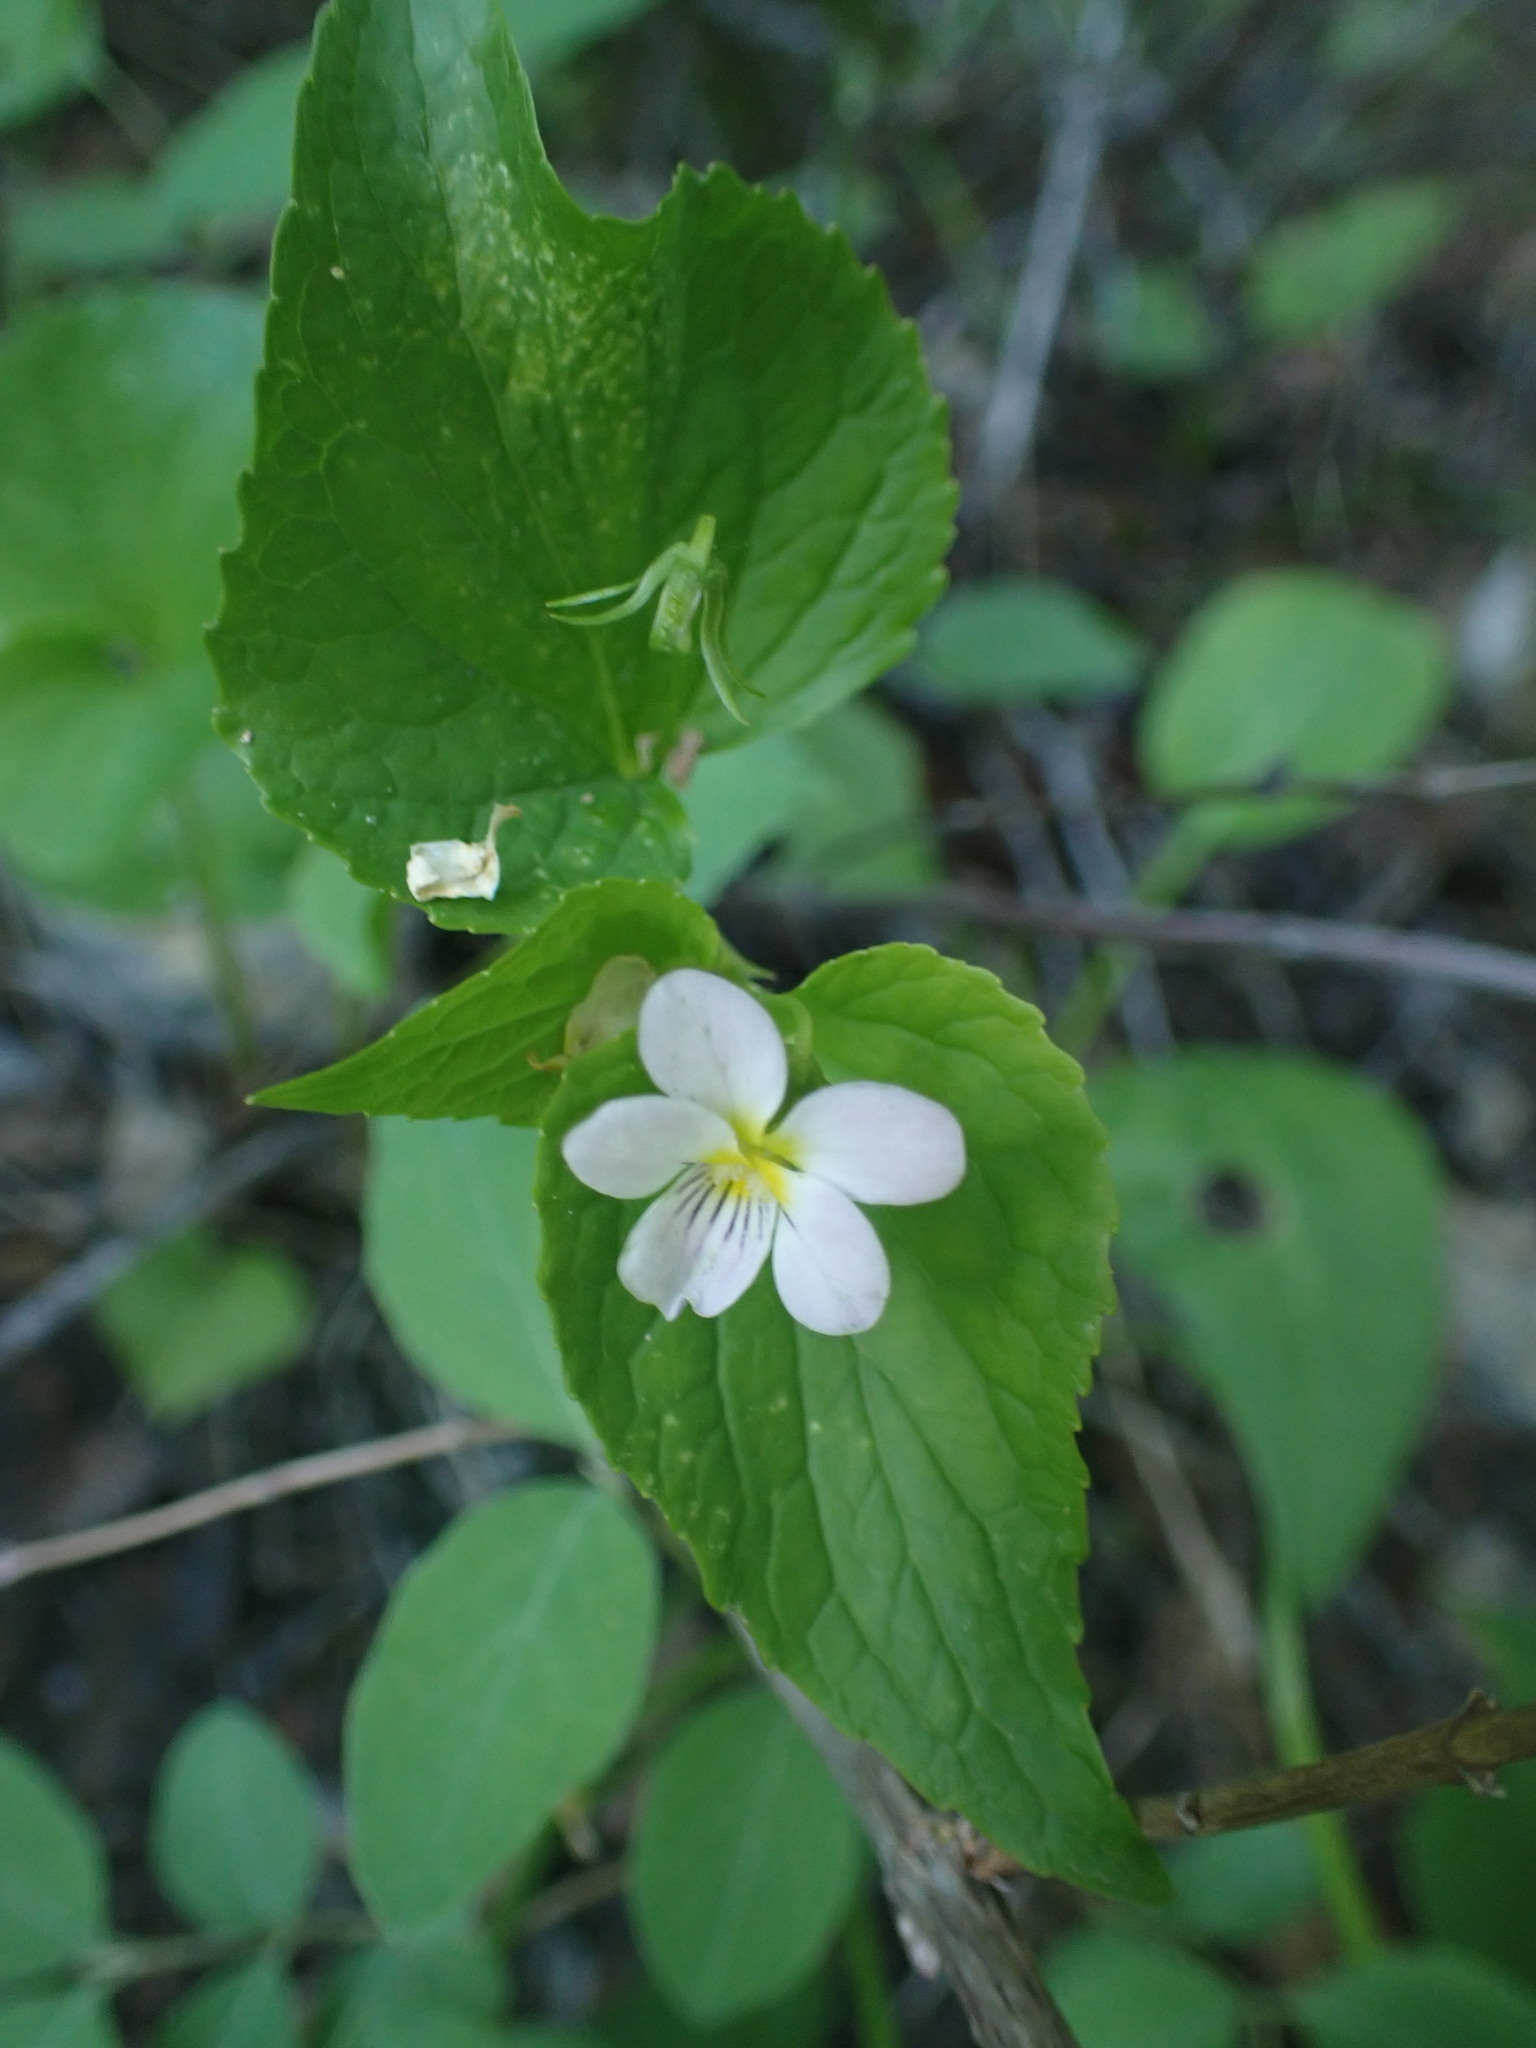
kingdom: Plantae
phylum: Tracheophyta
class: Magnoliopsida
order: Malpighiales
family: Violaceae
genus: Viola
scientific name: Viola canadensis
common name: Canada violet
